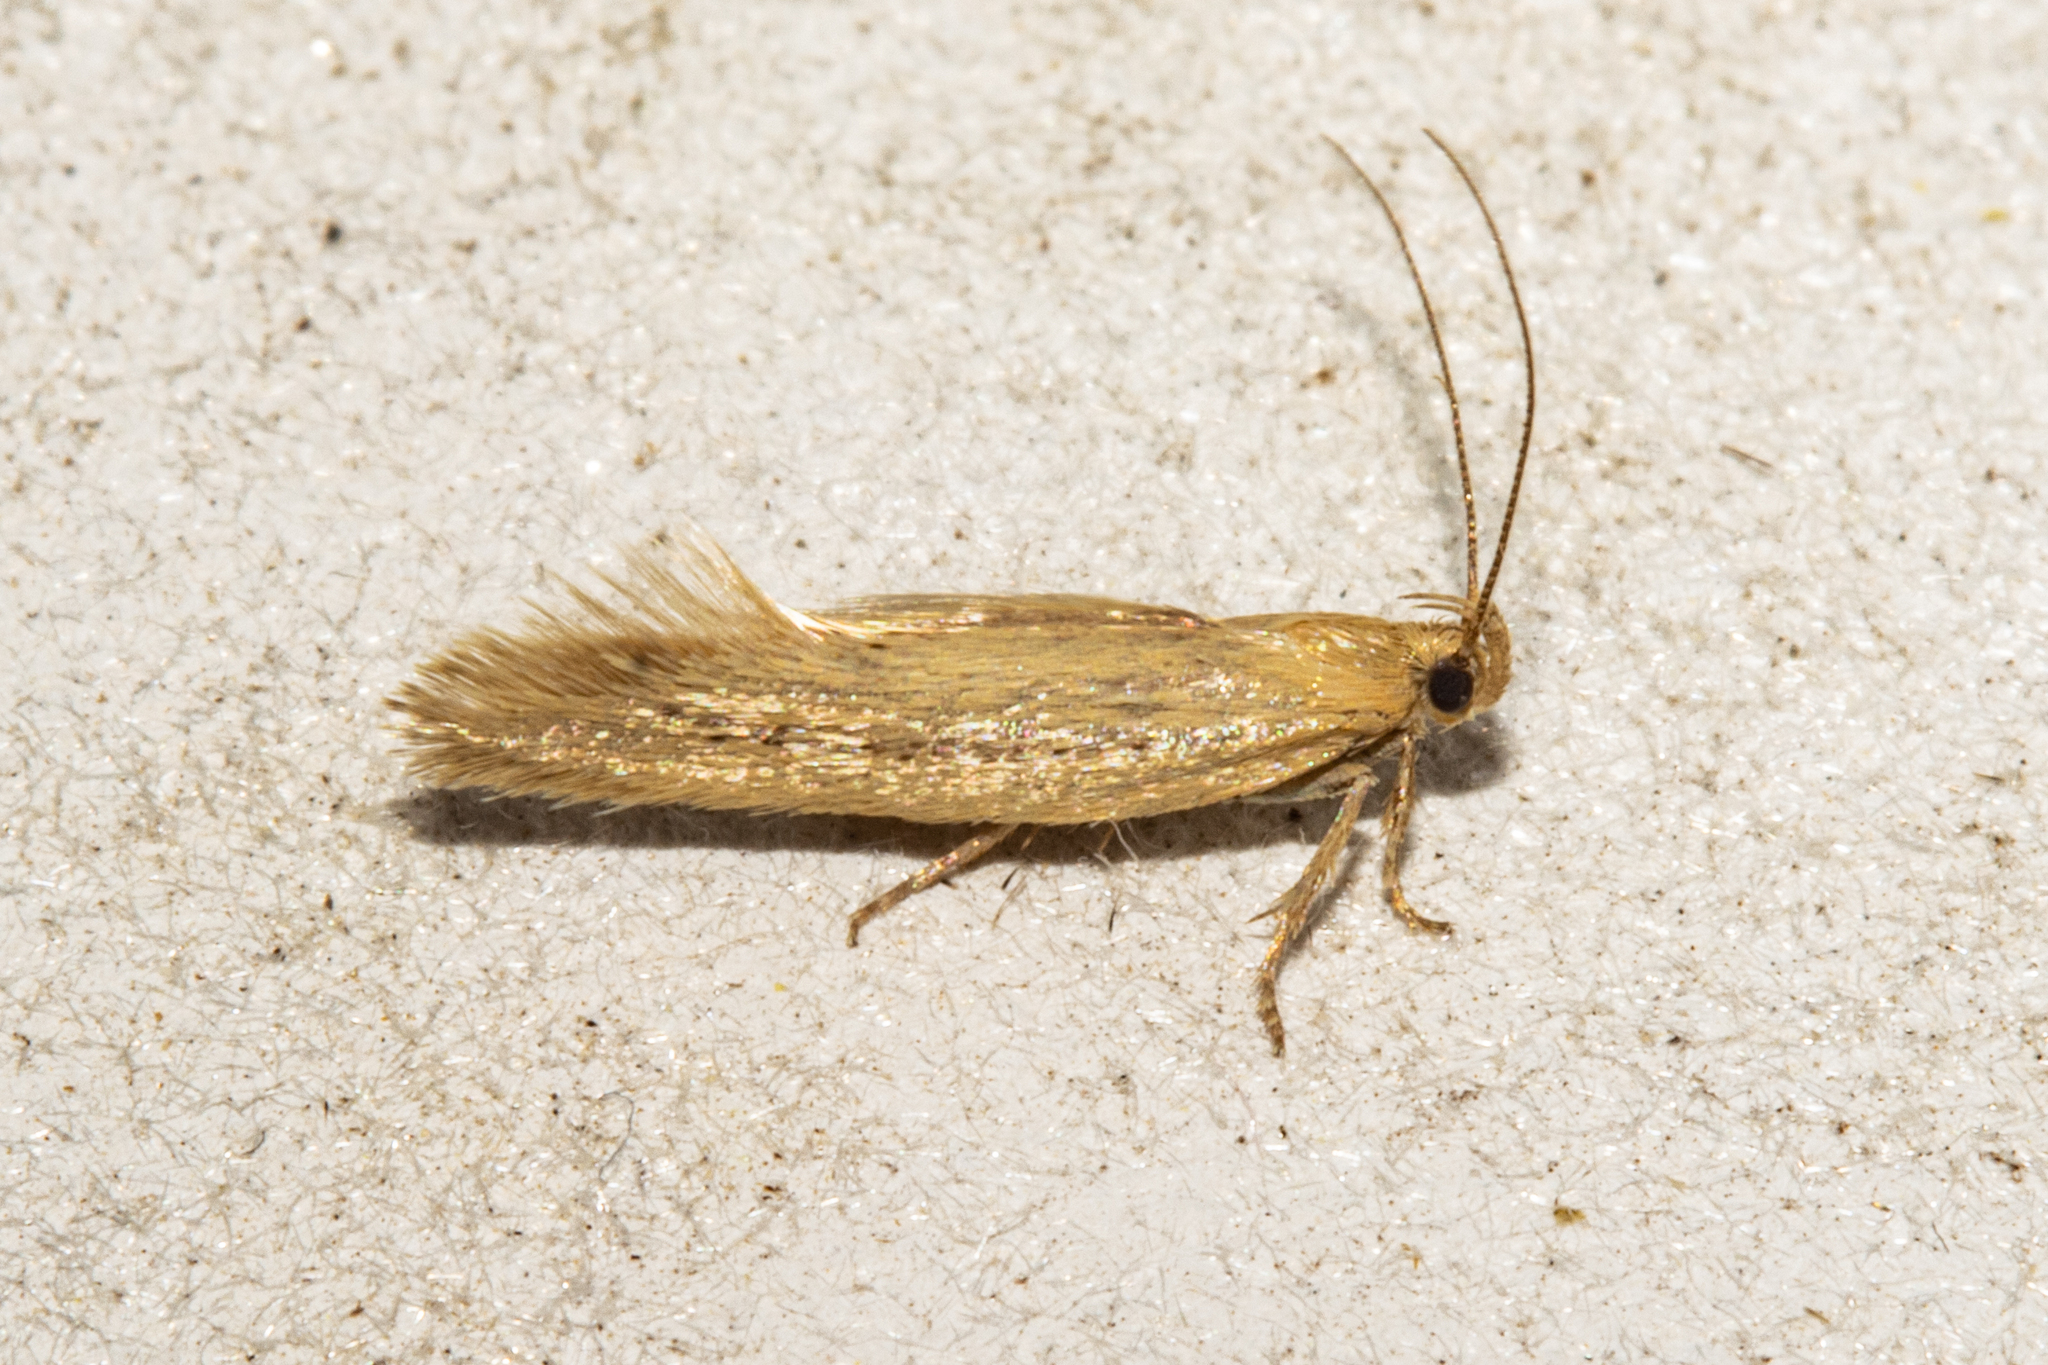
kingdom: Animalia
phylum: Arthropoda
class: Insecta
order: Lepidoptera
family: Oecophoridae
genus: Tingena
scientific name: Tingena maranta
